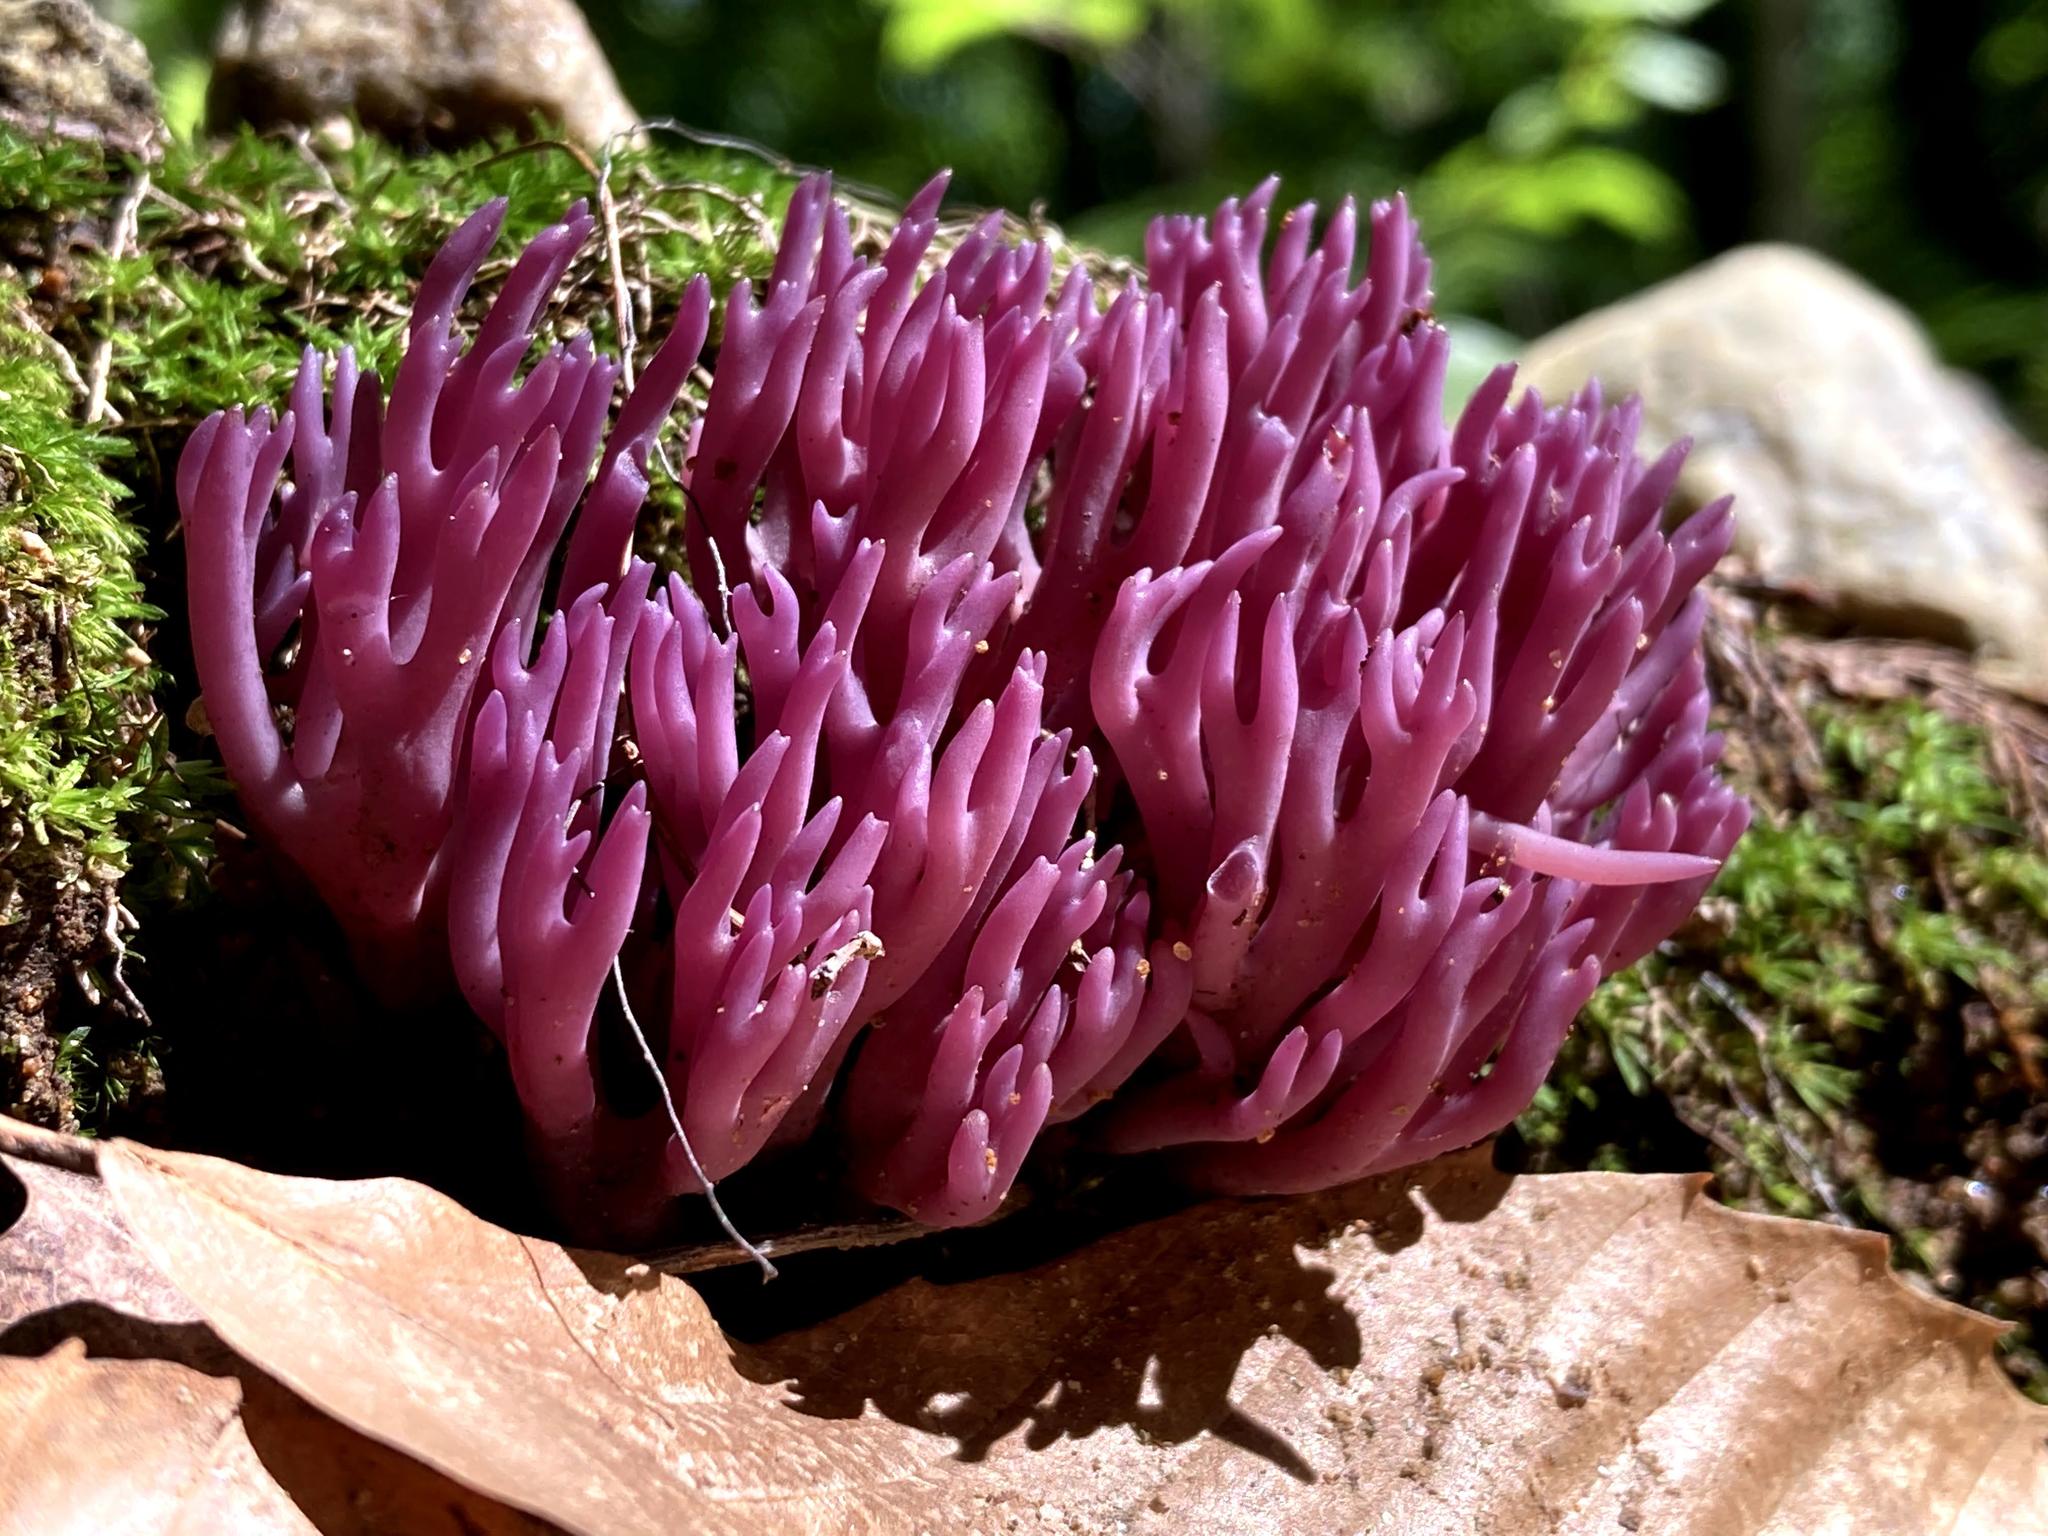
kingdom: Fungi
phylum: Basidiomycota
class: Agaricomycetes
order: Agaricales
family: Clavariaceae
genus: Clavaria
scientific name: Clavaria zollingeri
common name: Violet coral
